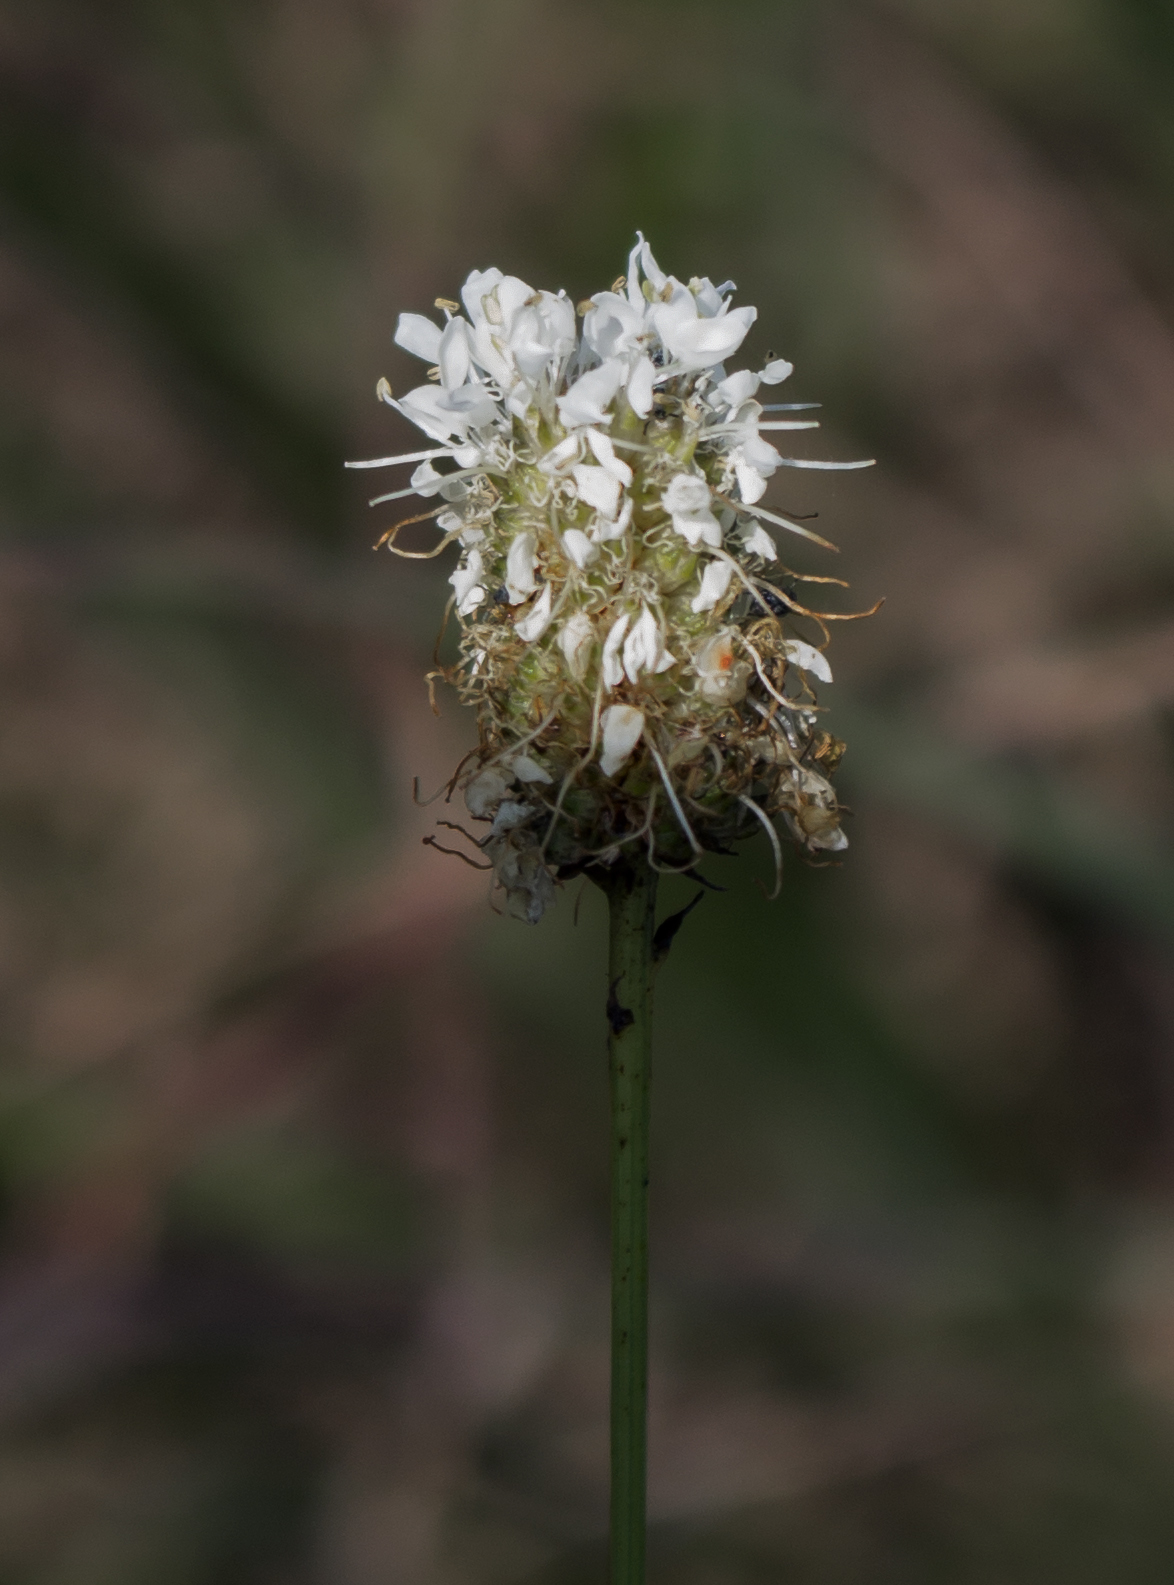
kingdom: Plantae
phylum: Tracheophyta
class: Magnoliopsida
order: Fabales
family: Fabaceae
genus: Dalea
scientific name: Dalea candida
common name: White prairie-clover
